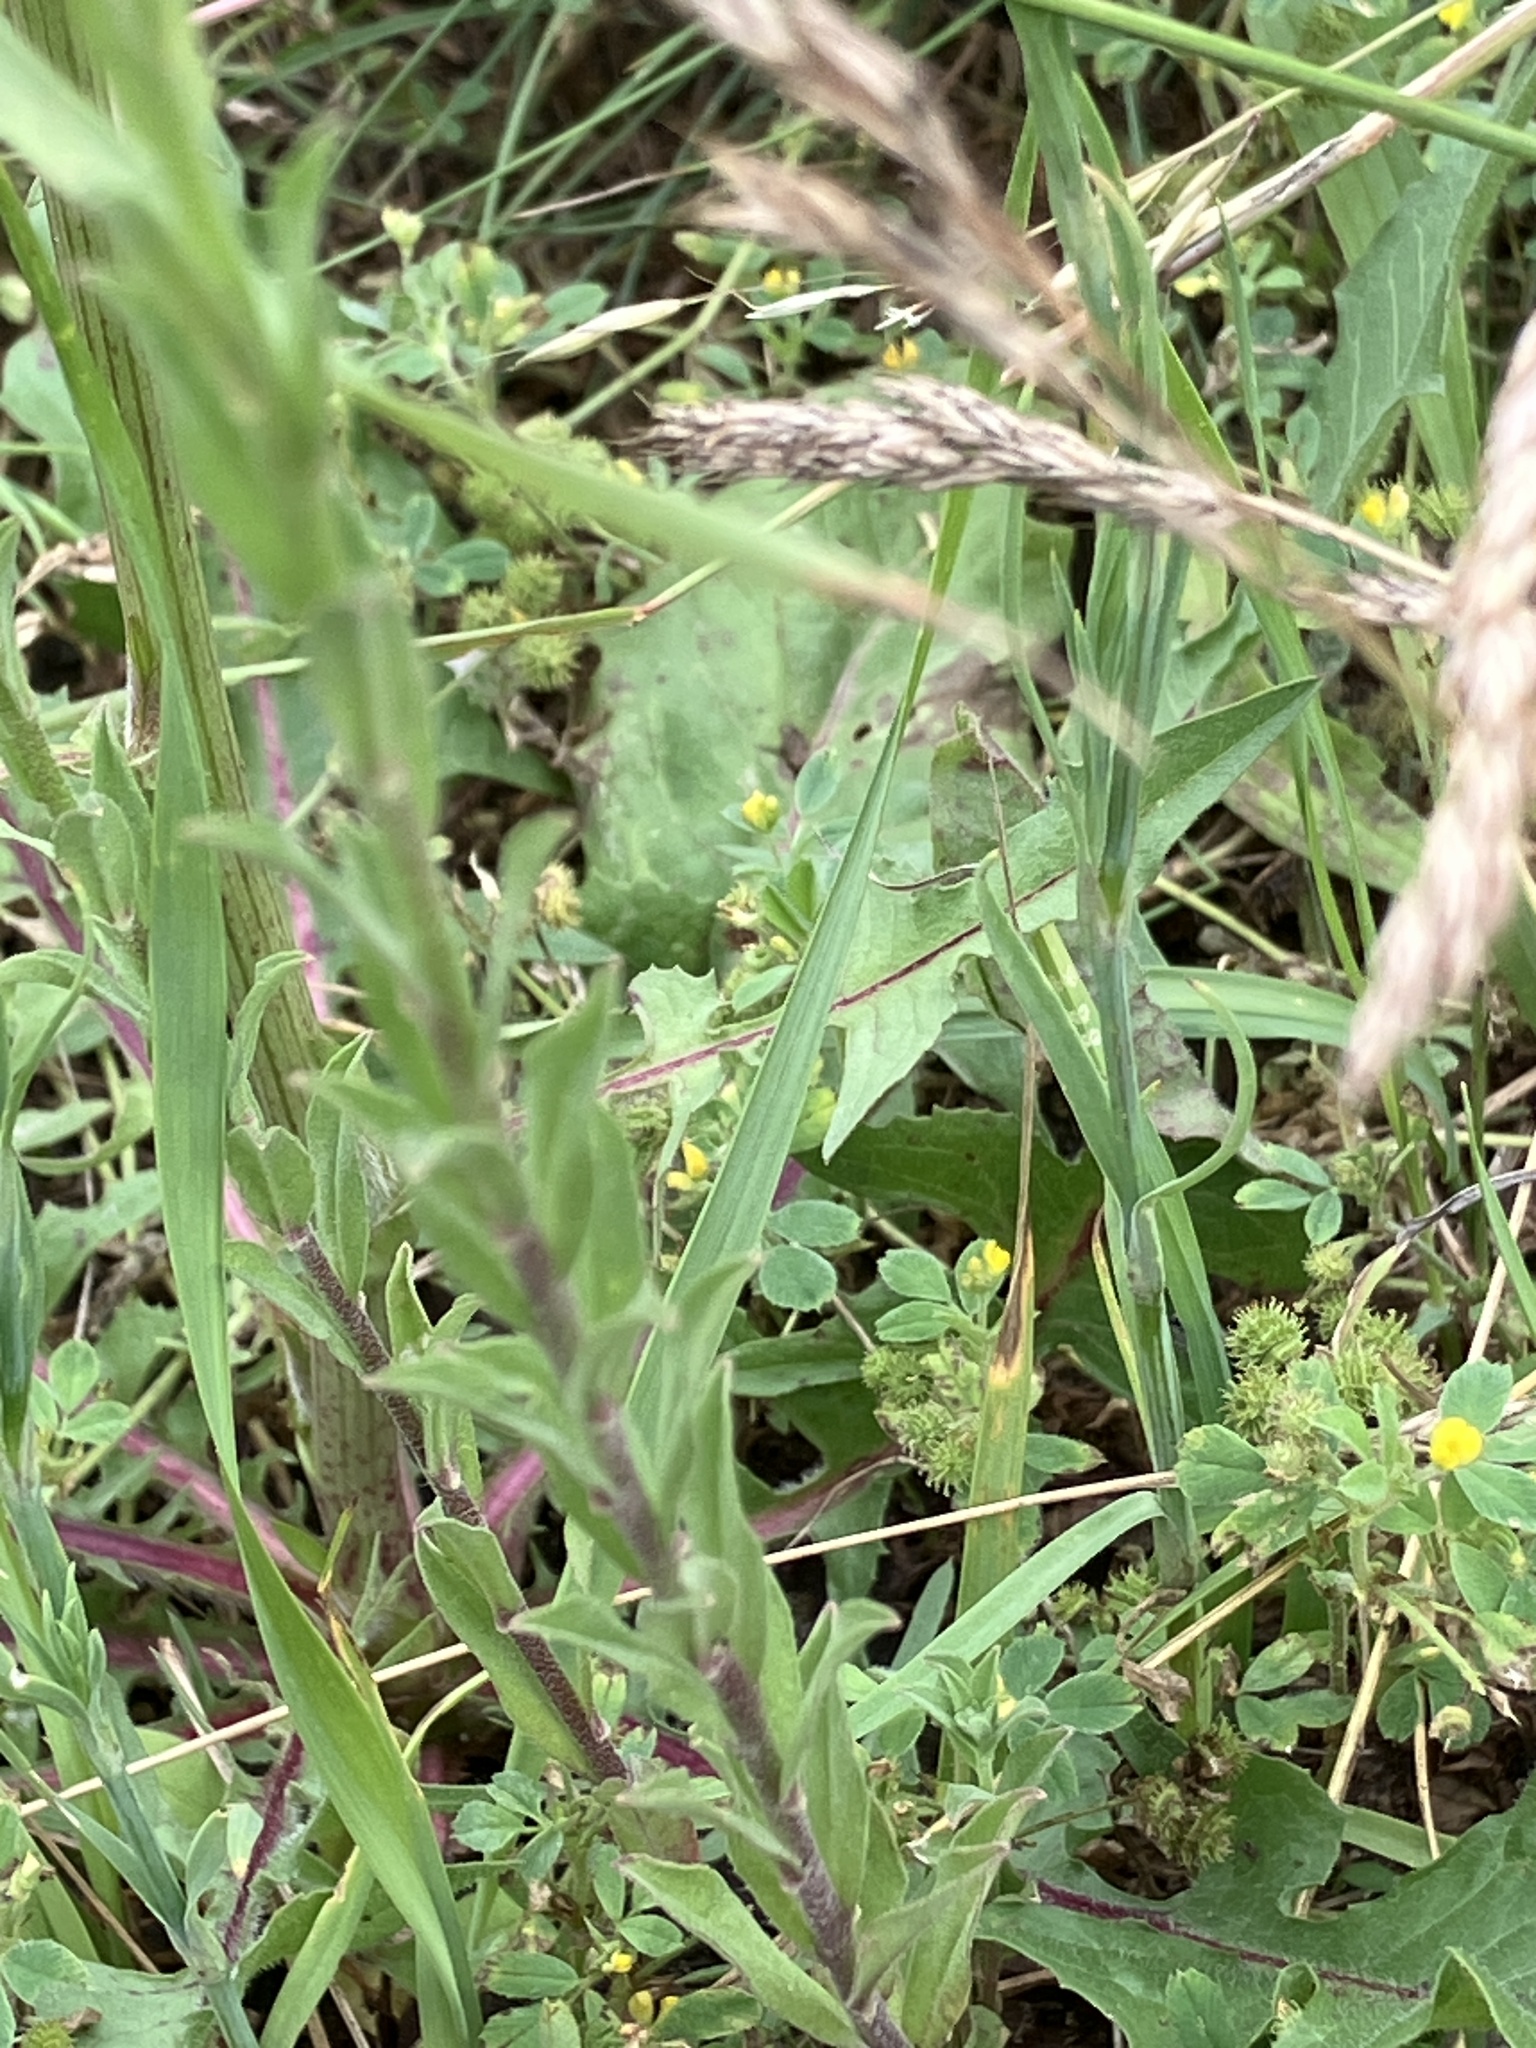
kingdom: Plantae
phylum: Tracheophyta
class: Magnoliopsida
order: Brassicales
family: Brassicaceae
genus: Berteroa
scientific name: Berteroa incana
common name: Hoary alison
